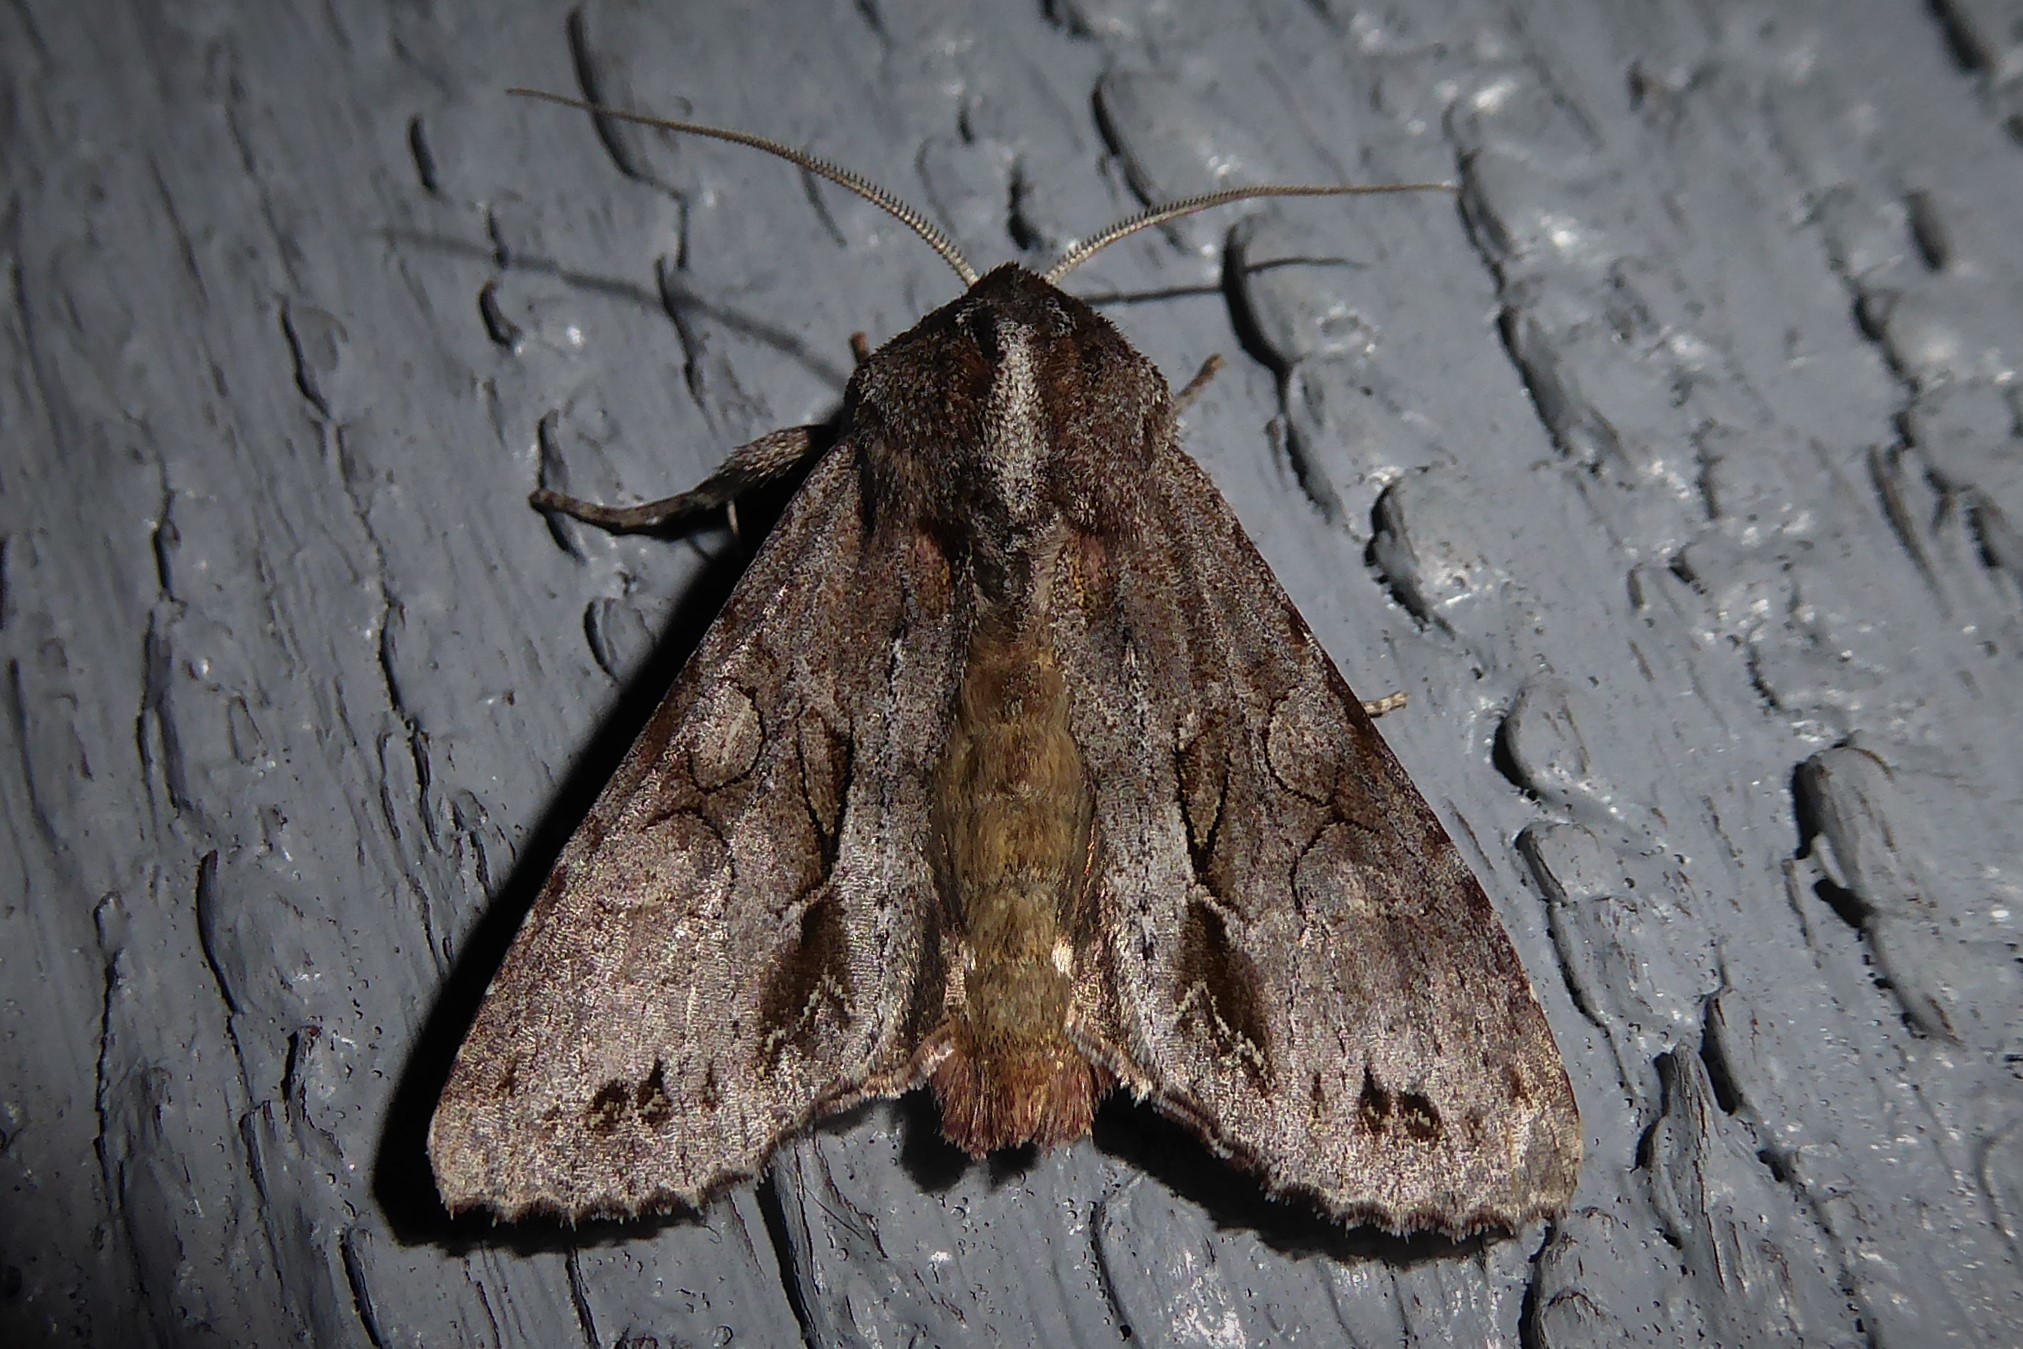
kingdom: Animalia
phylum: Arthropoda
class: Insecta
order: Lepidoptera
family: Noctuidae
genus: Ichneutica
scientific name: Ichneutica
